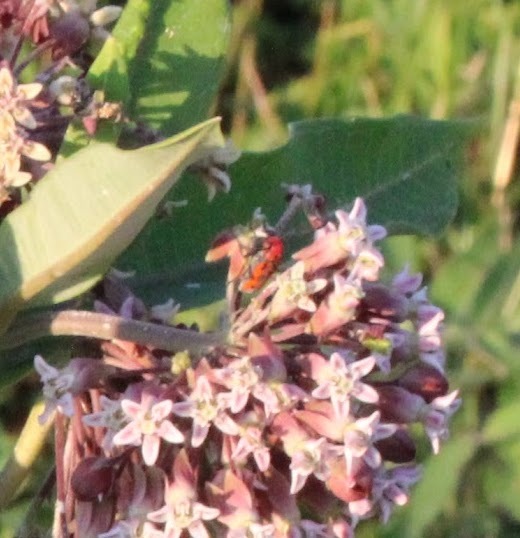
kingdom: Animalia
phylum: Arthropoda
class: Insecta
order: Coleoptera
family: Cerambycidae
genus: Tetraopes
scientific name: Tetraopes tetrophthalmus
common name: Red milkweed beetle
